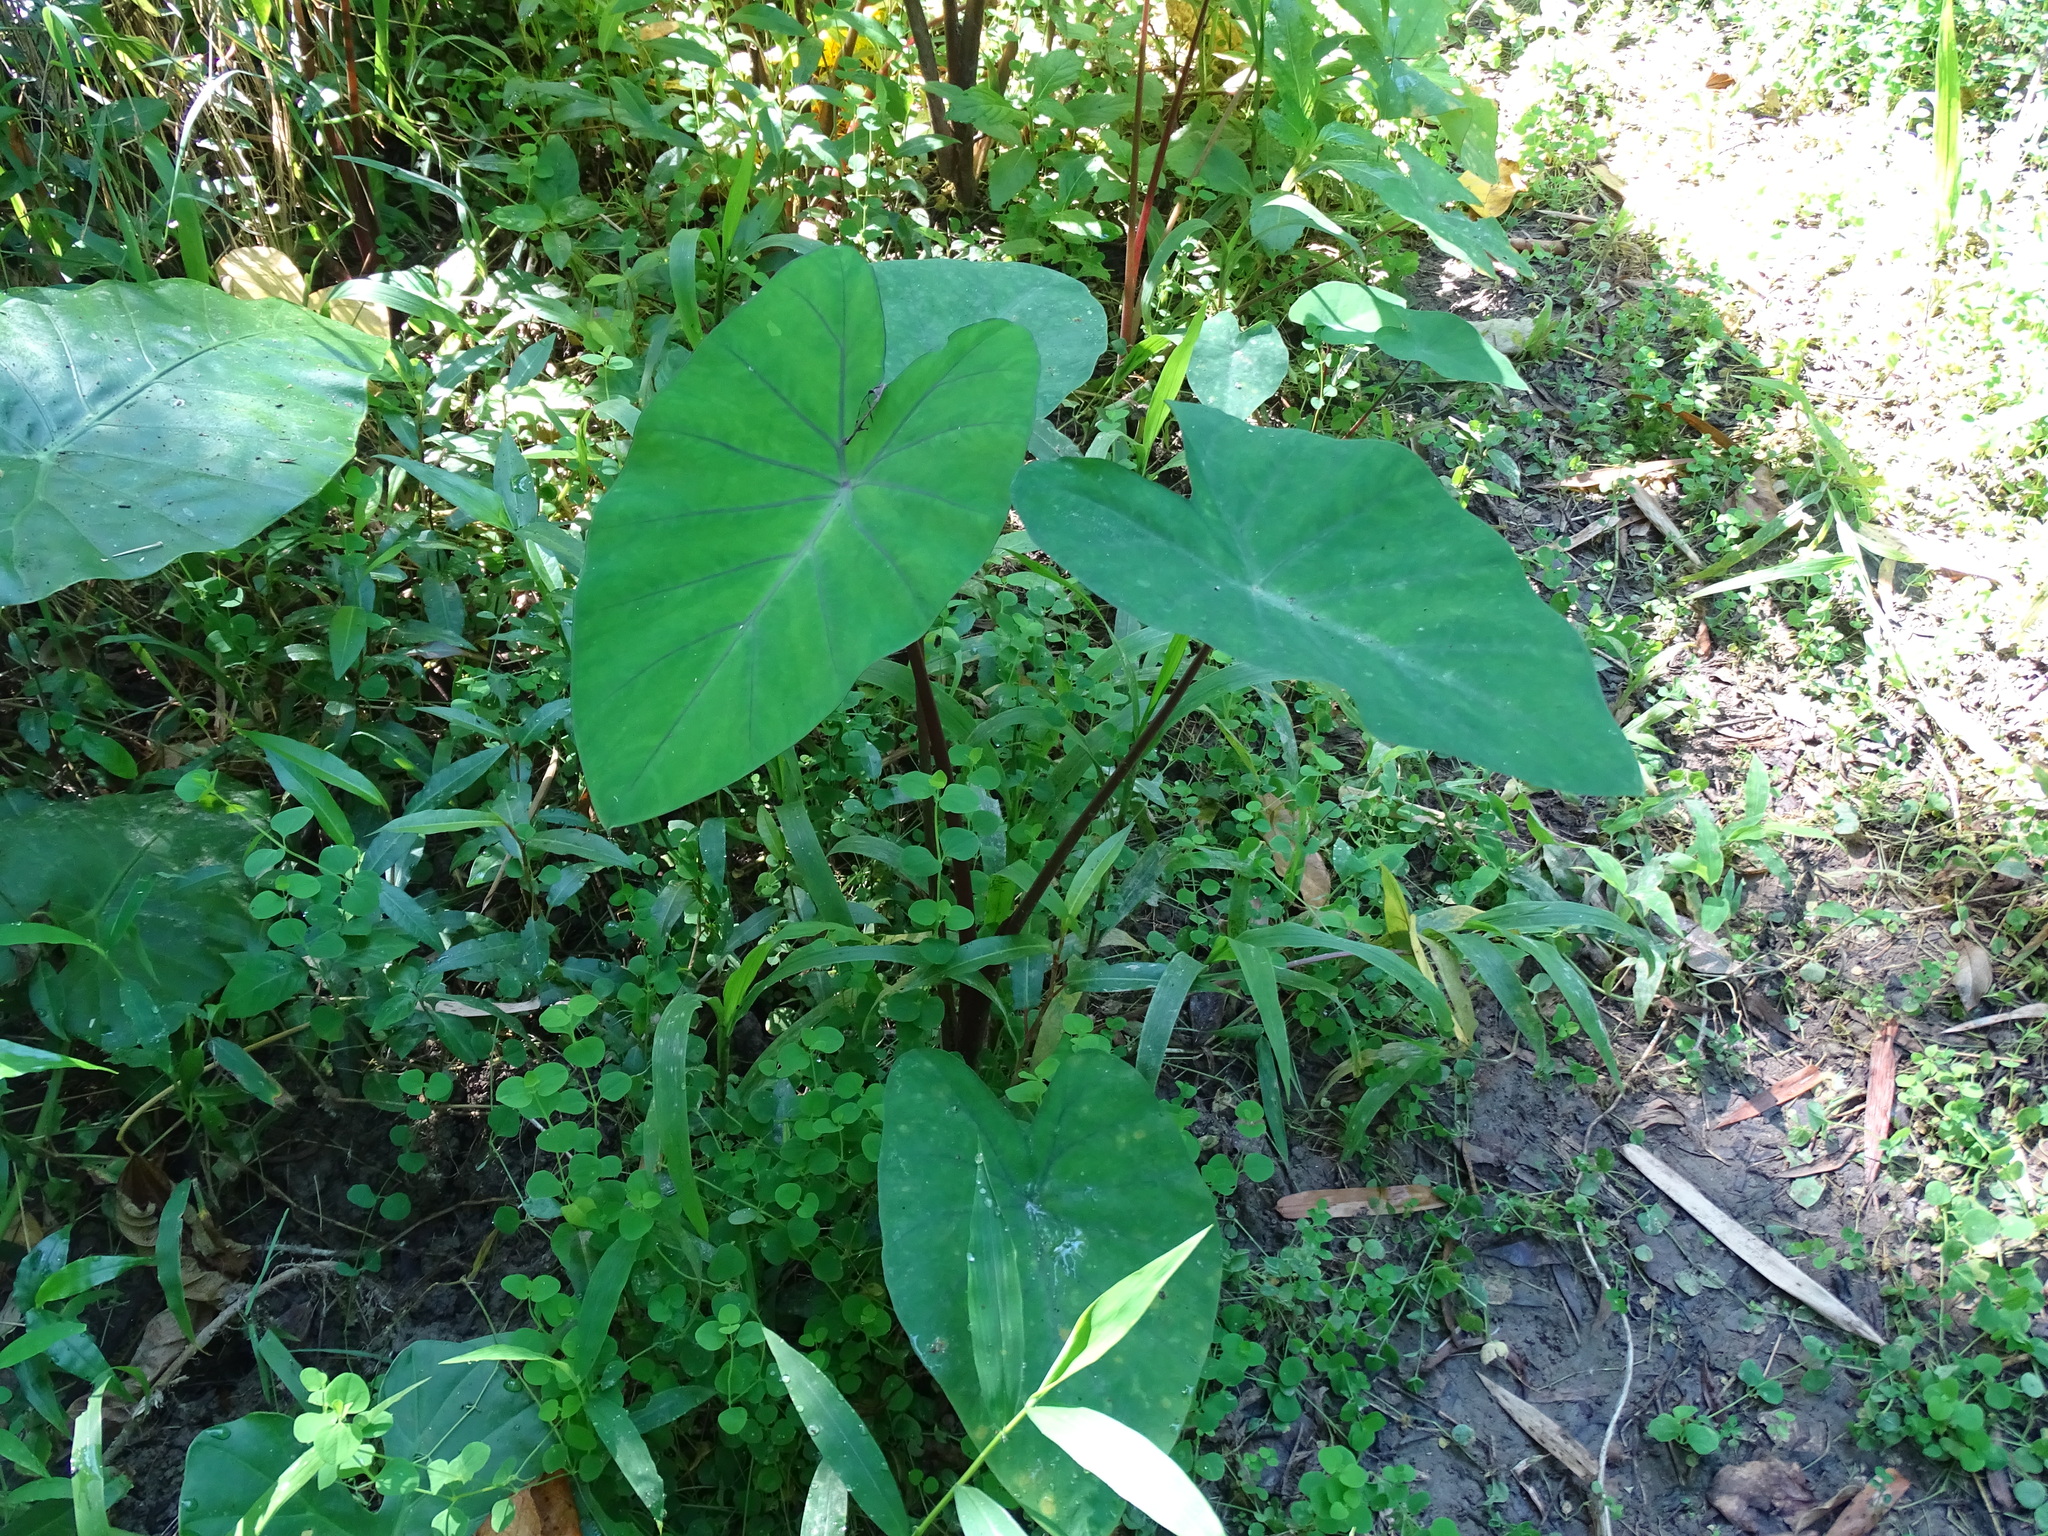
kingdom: Plantae
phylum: Tracheophyta
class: Liliopsida
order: Alismatales
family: Araceae
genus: Colocasia
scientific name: Colocasia esculenta
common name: Taro
